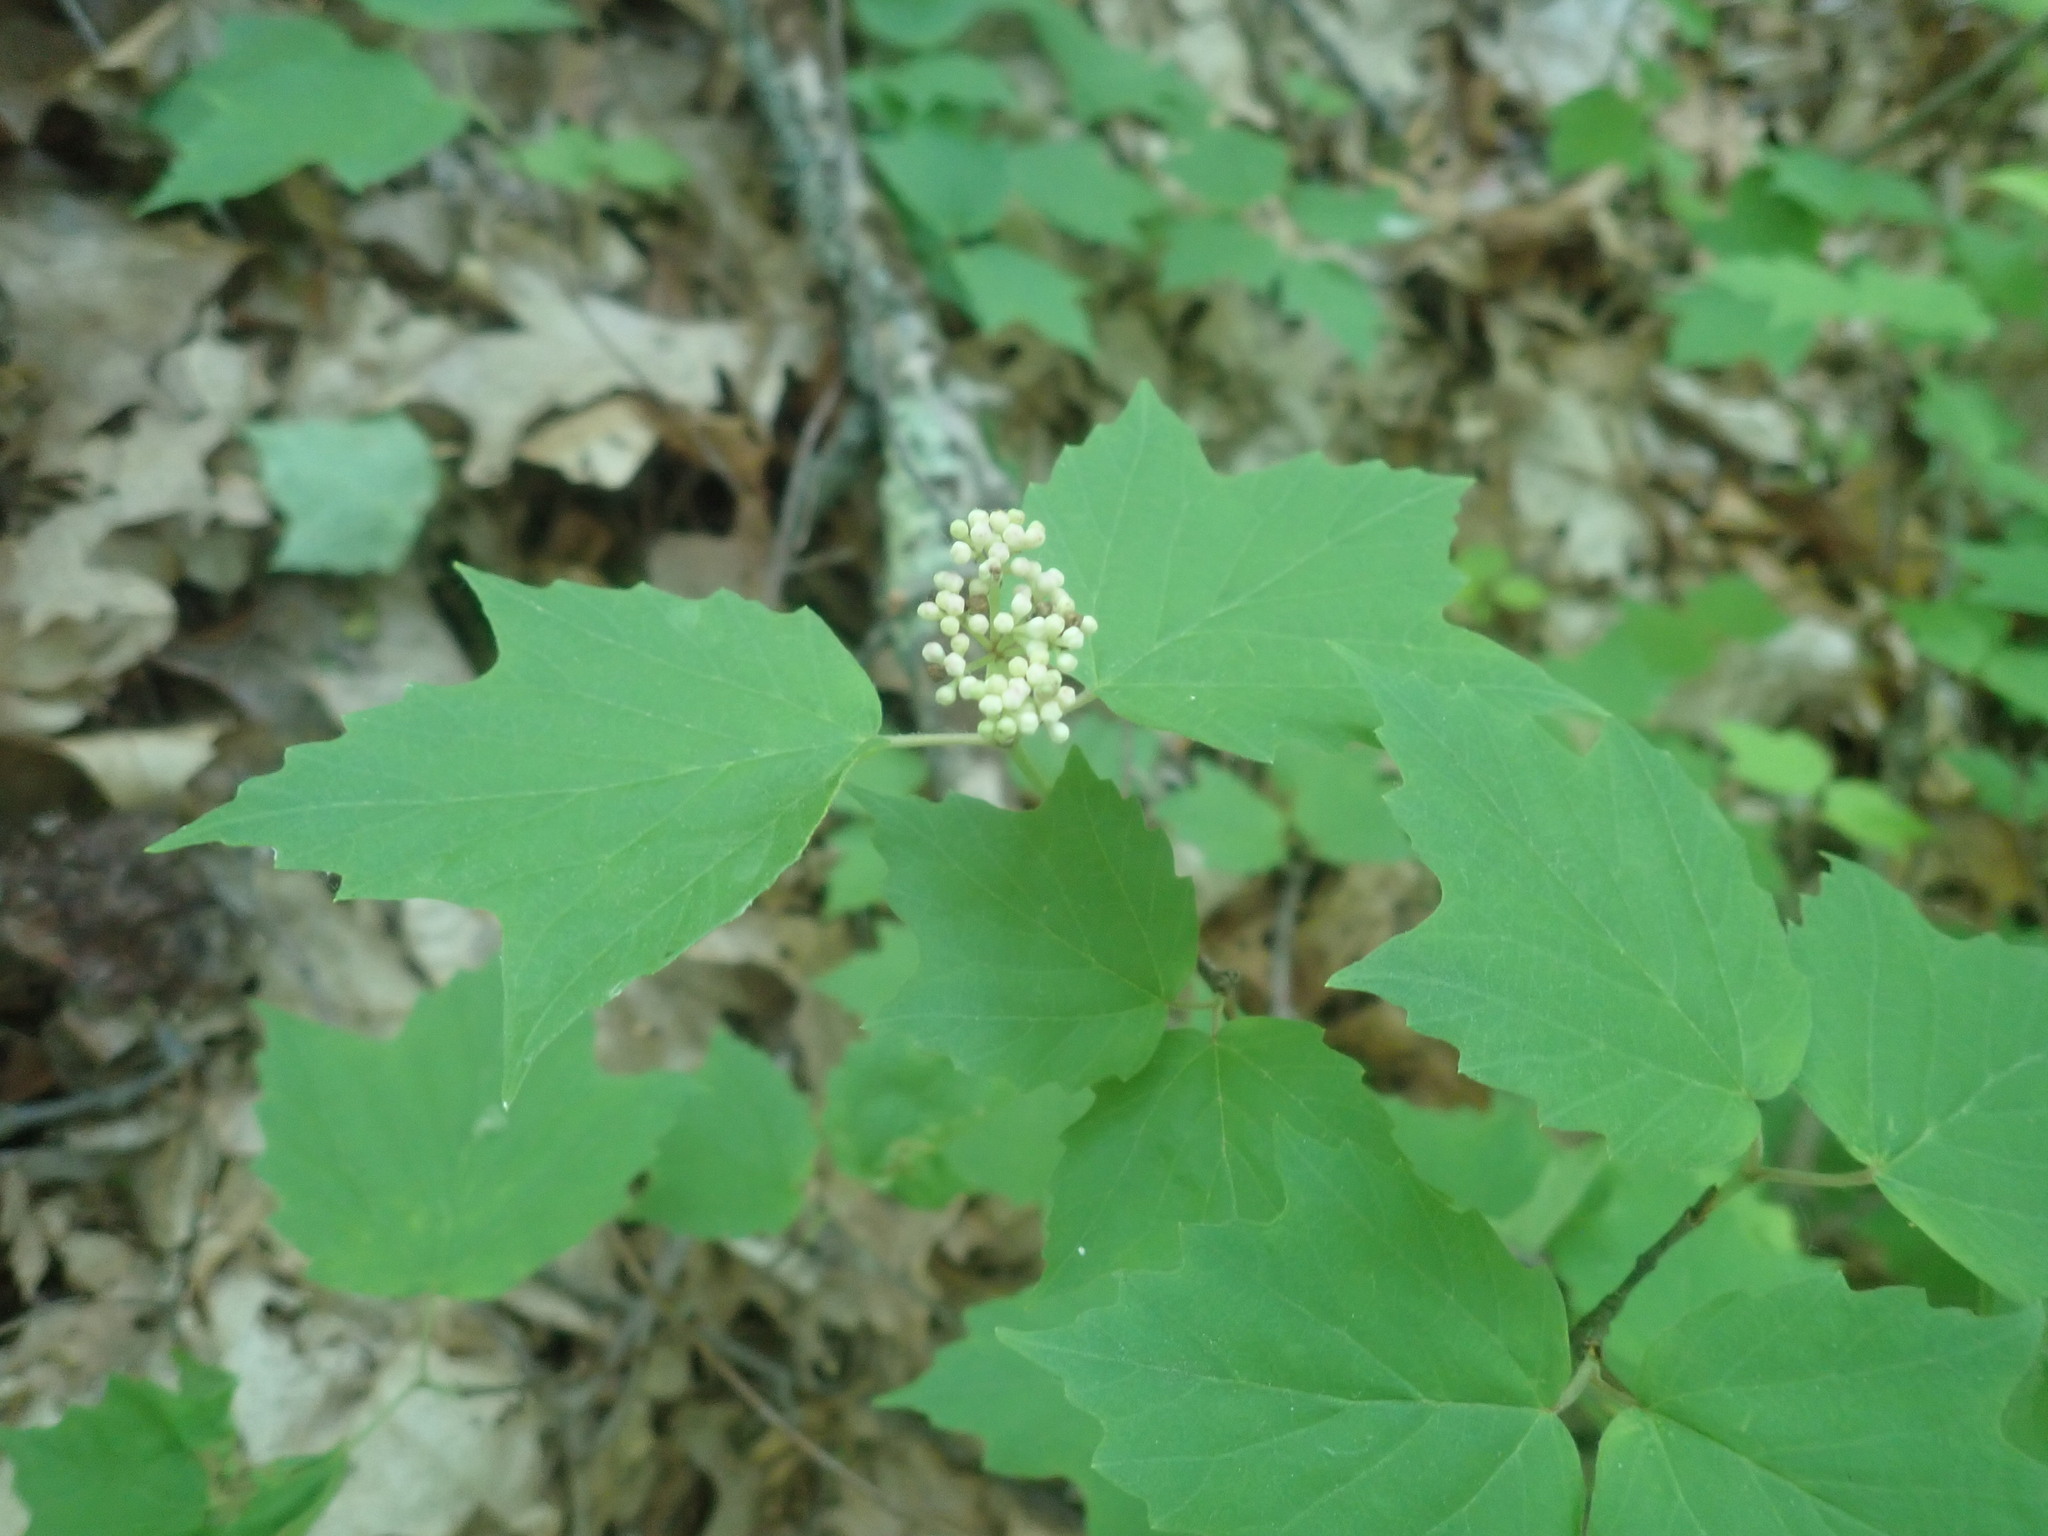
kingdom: Plantae
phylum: Tracheophyta
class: Magnoliopsida
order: Dipsacales
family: Viburnaceae
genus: Viburnum
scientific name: Viburnum acerifolium
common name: Dockmackie
